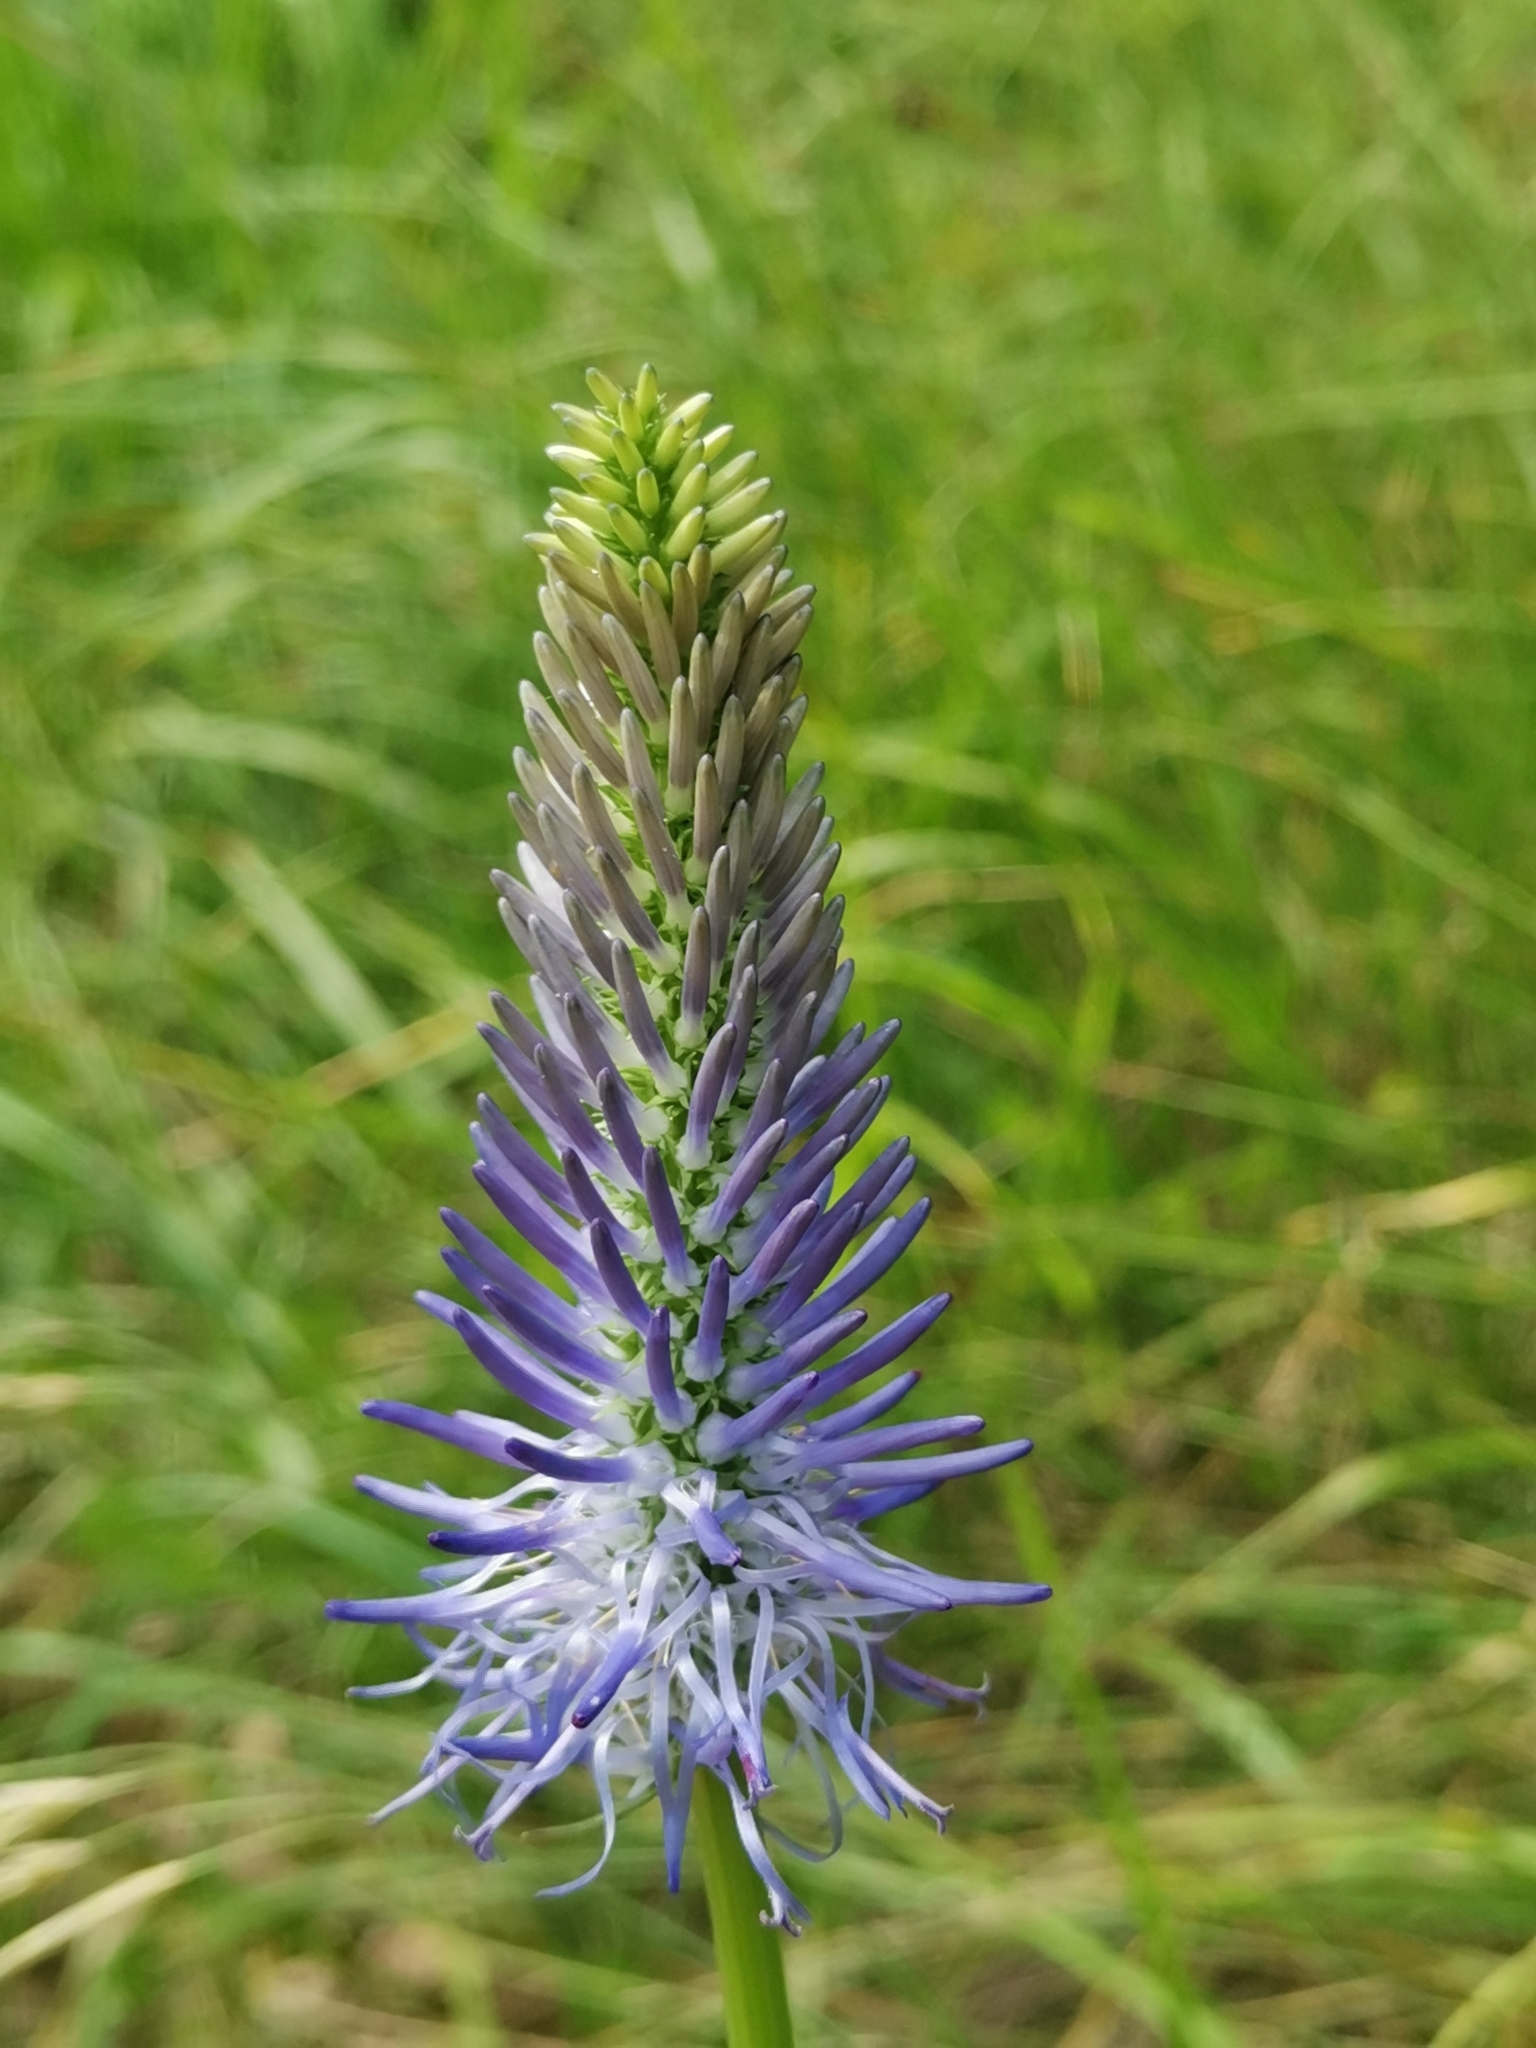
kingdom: Plantae
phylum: Tracheophyta
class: Magnoliopsida
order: Asterales
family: Campanulaceae
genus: Phyteuma
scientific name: Phyteuma persicifolium
